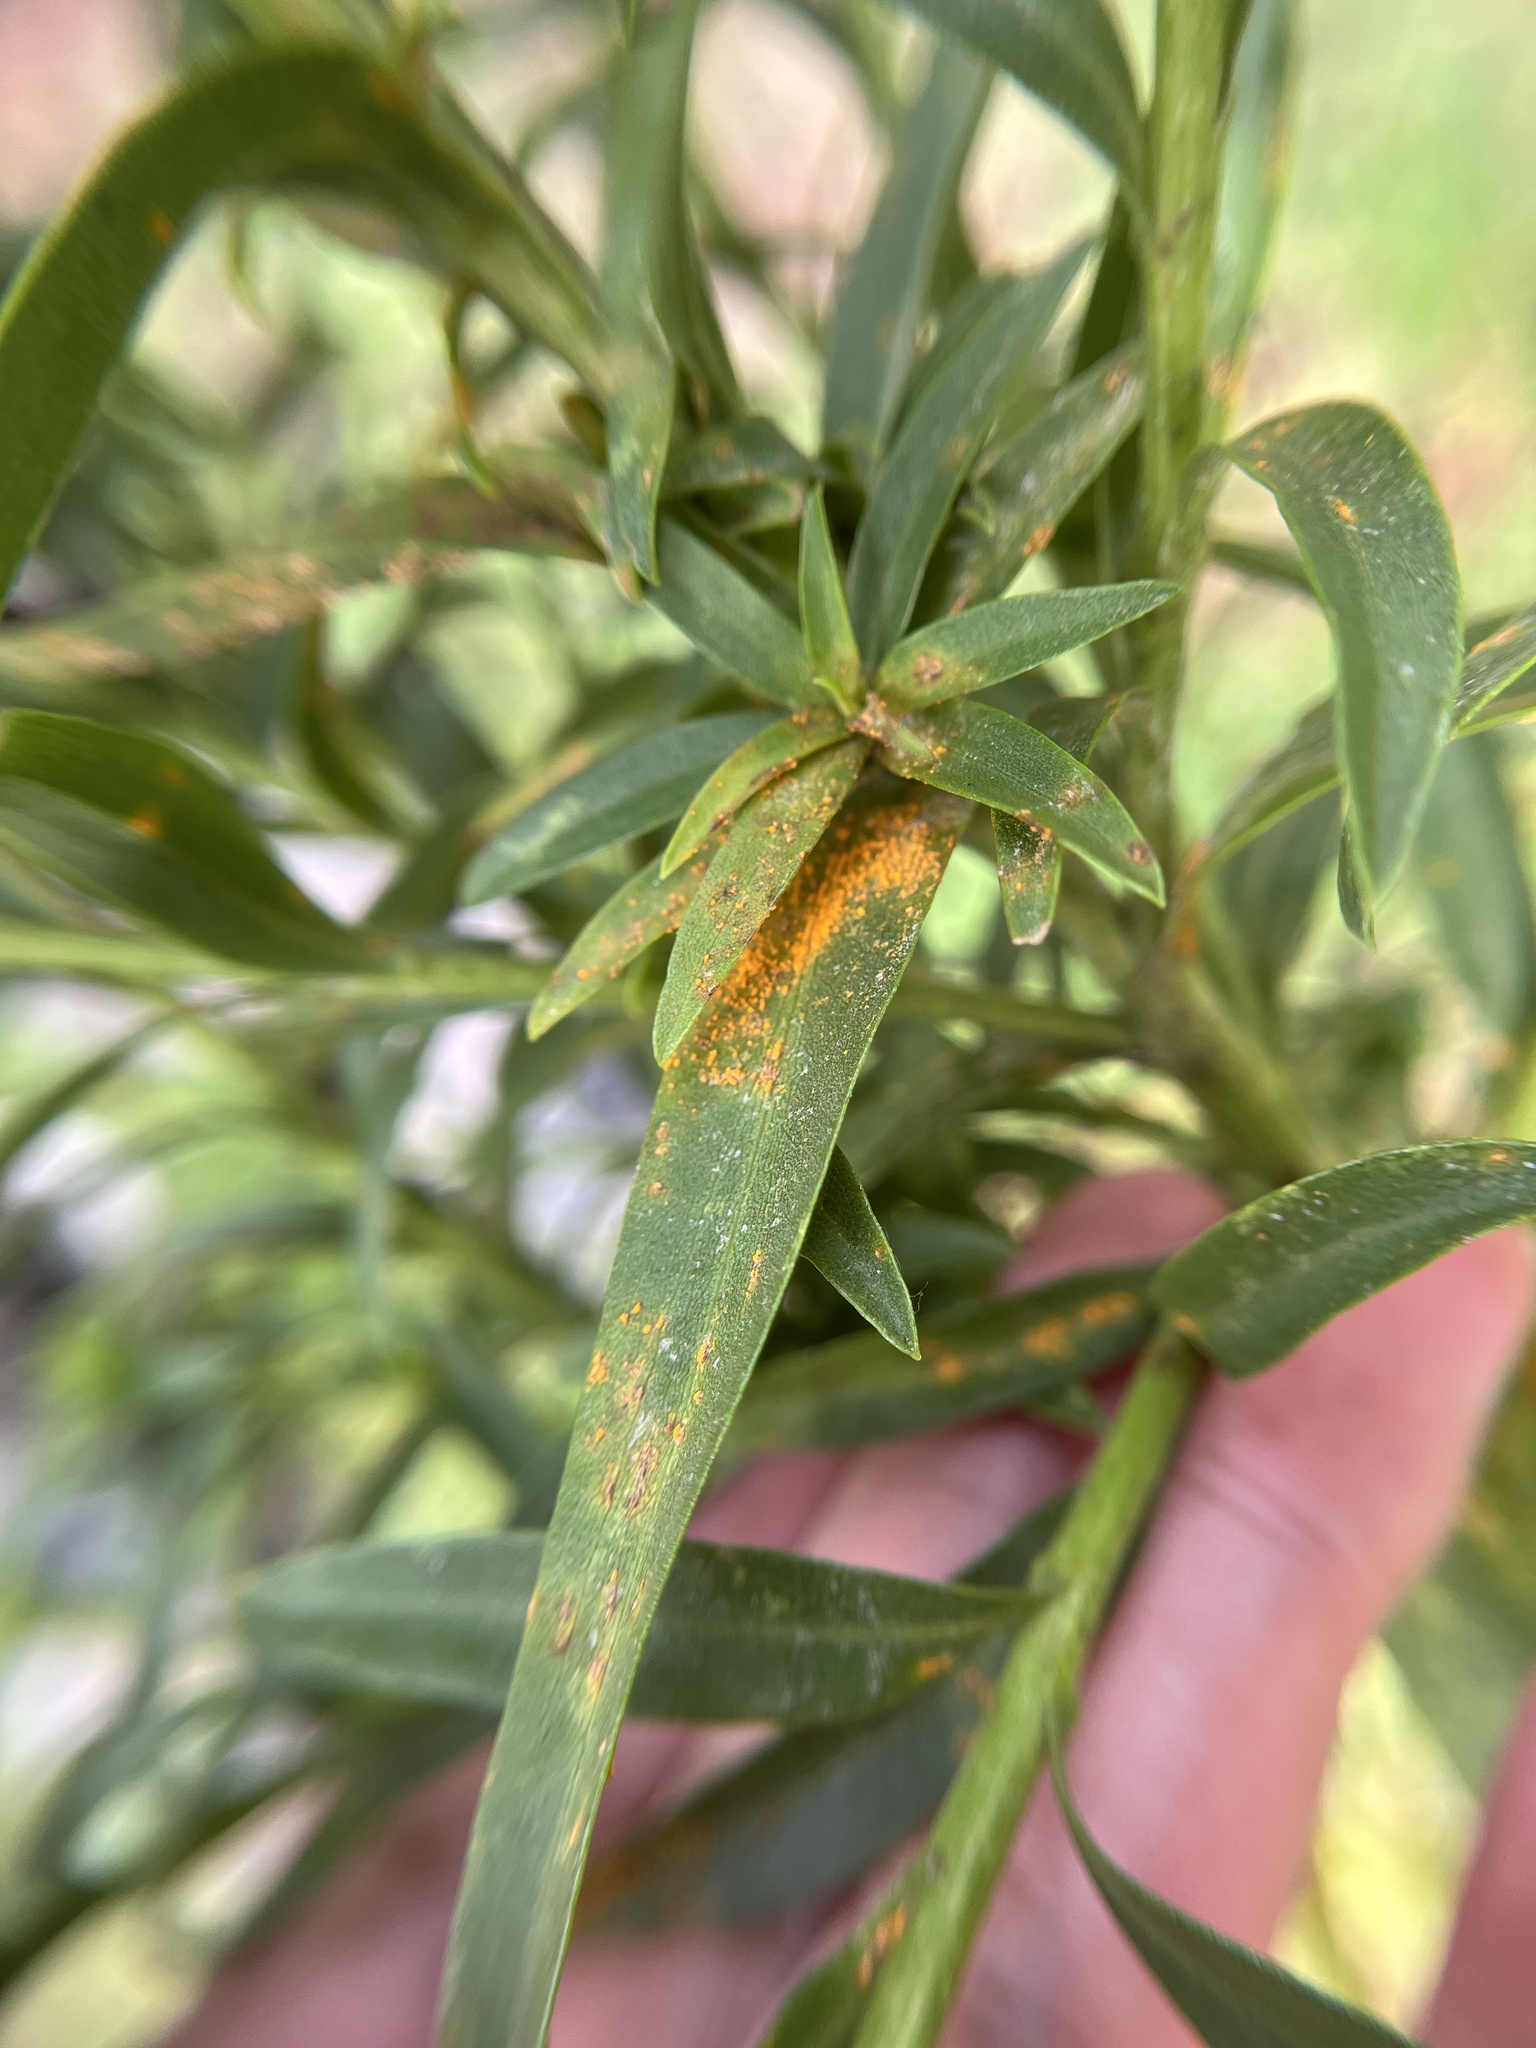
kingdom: Fungi
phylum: Basidiomycota
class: Pucciniomycetes
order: Pucciniales
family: Coleosporiaceae
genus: Coleosporium
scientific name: Coleosporium asterum
